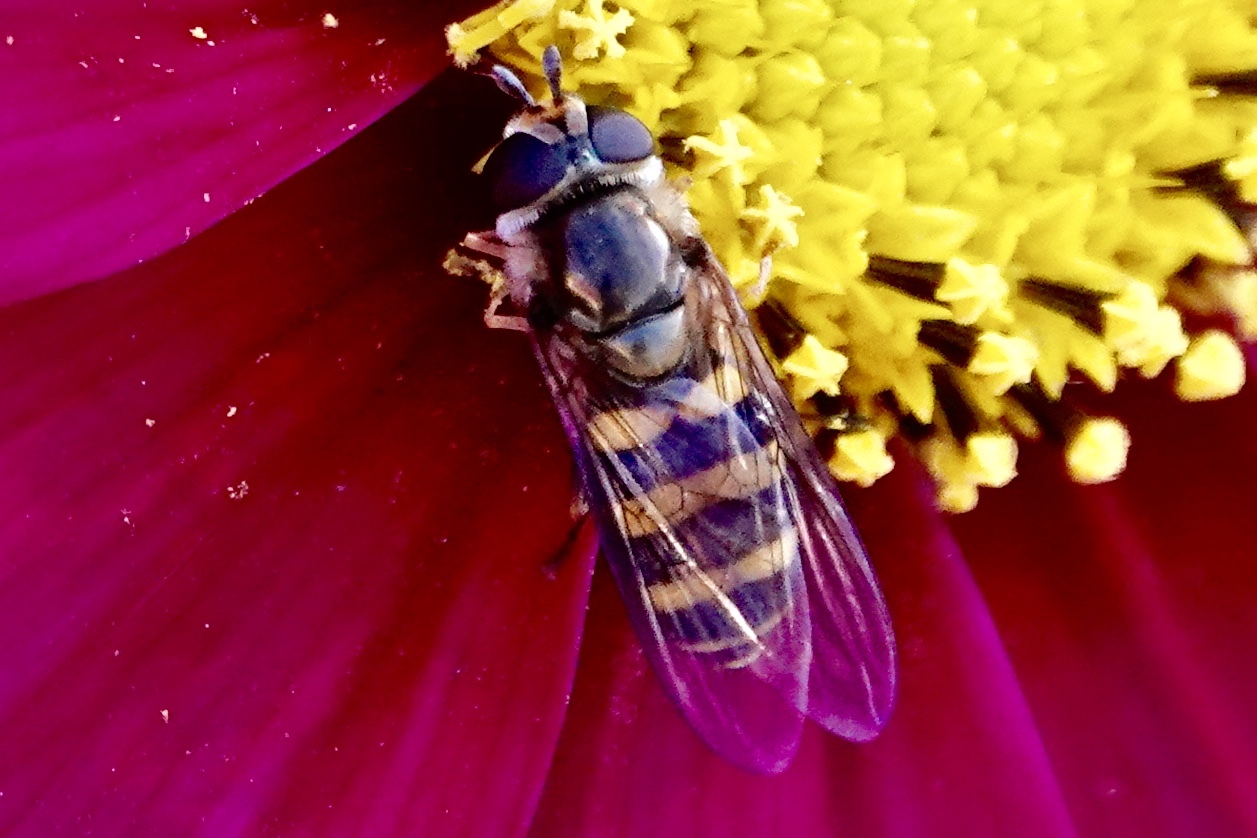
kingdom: Animalia
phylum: Arthropoda
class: Insecta
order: Diptera
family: Syrphidae
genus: Eupeodes
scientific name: Eupeodes
